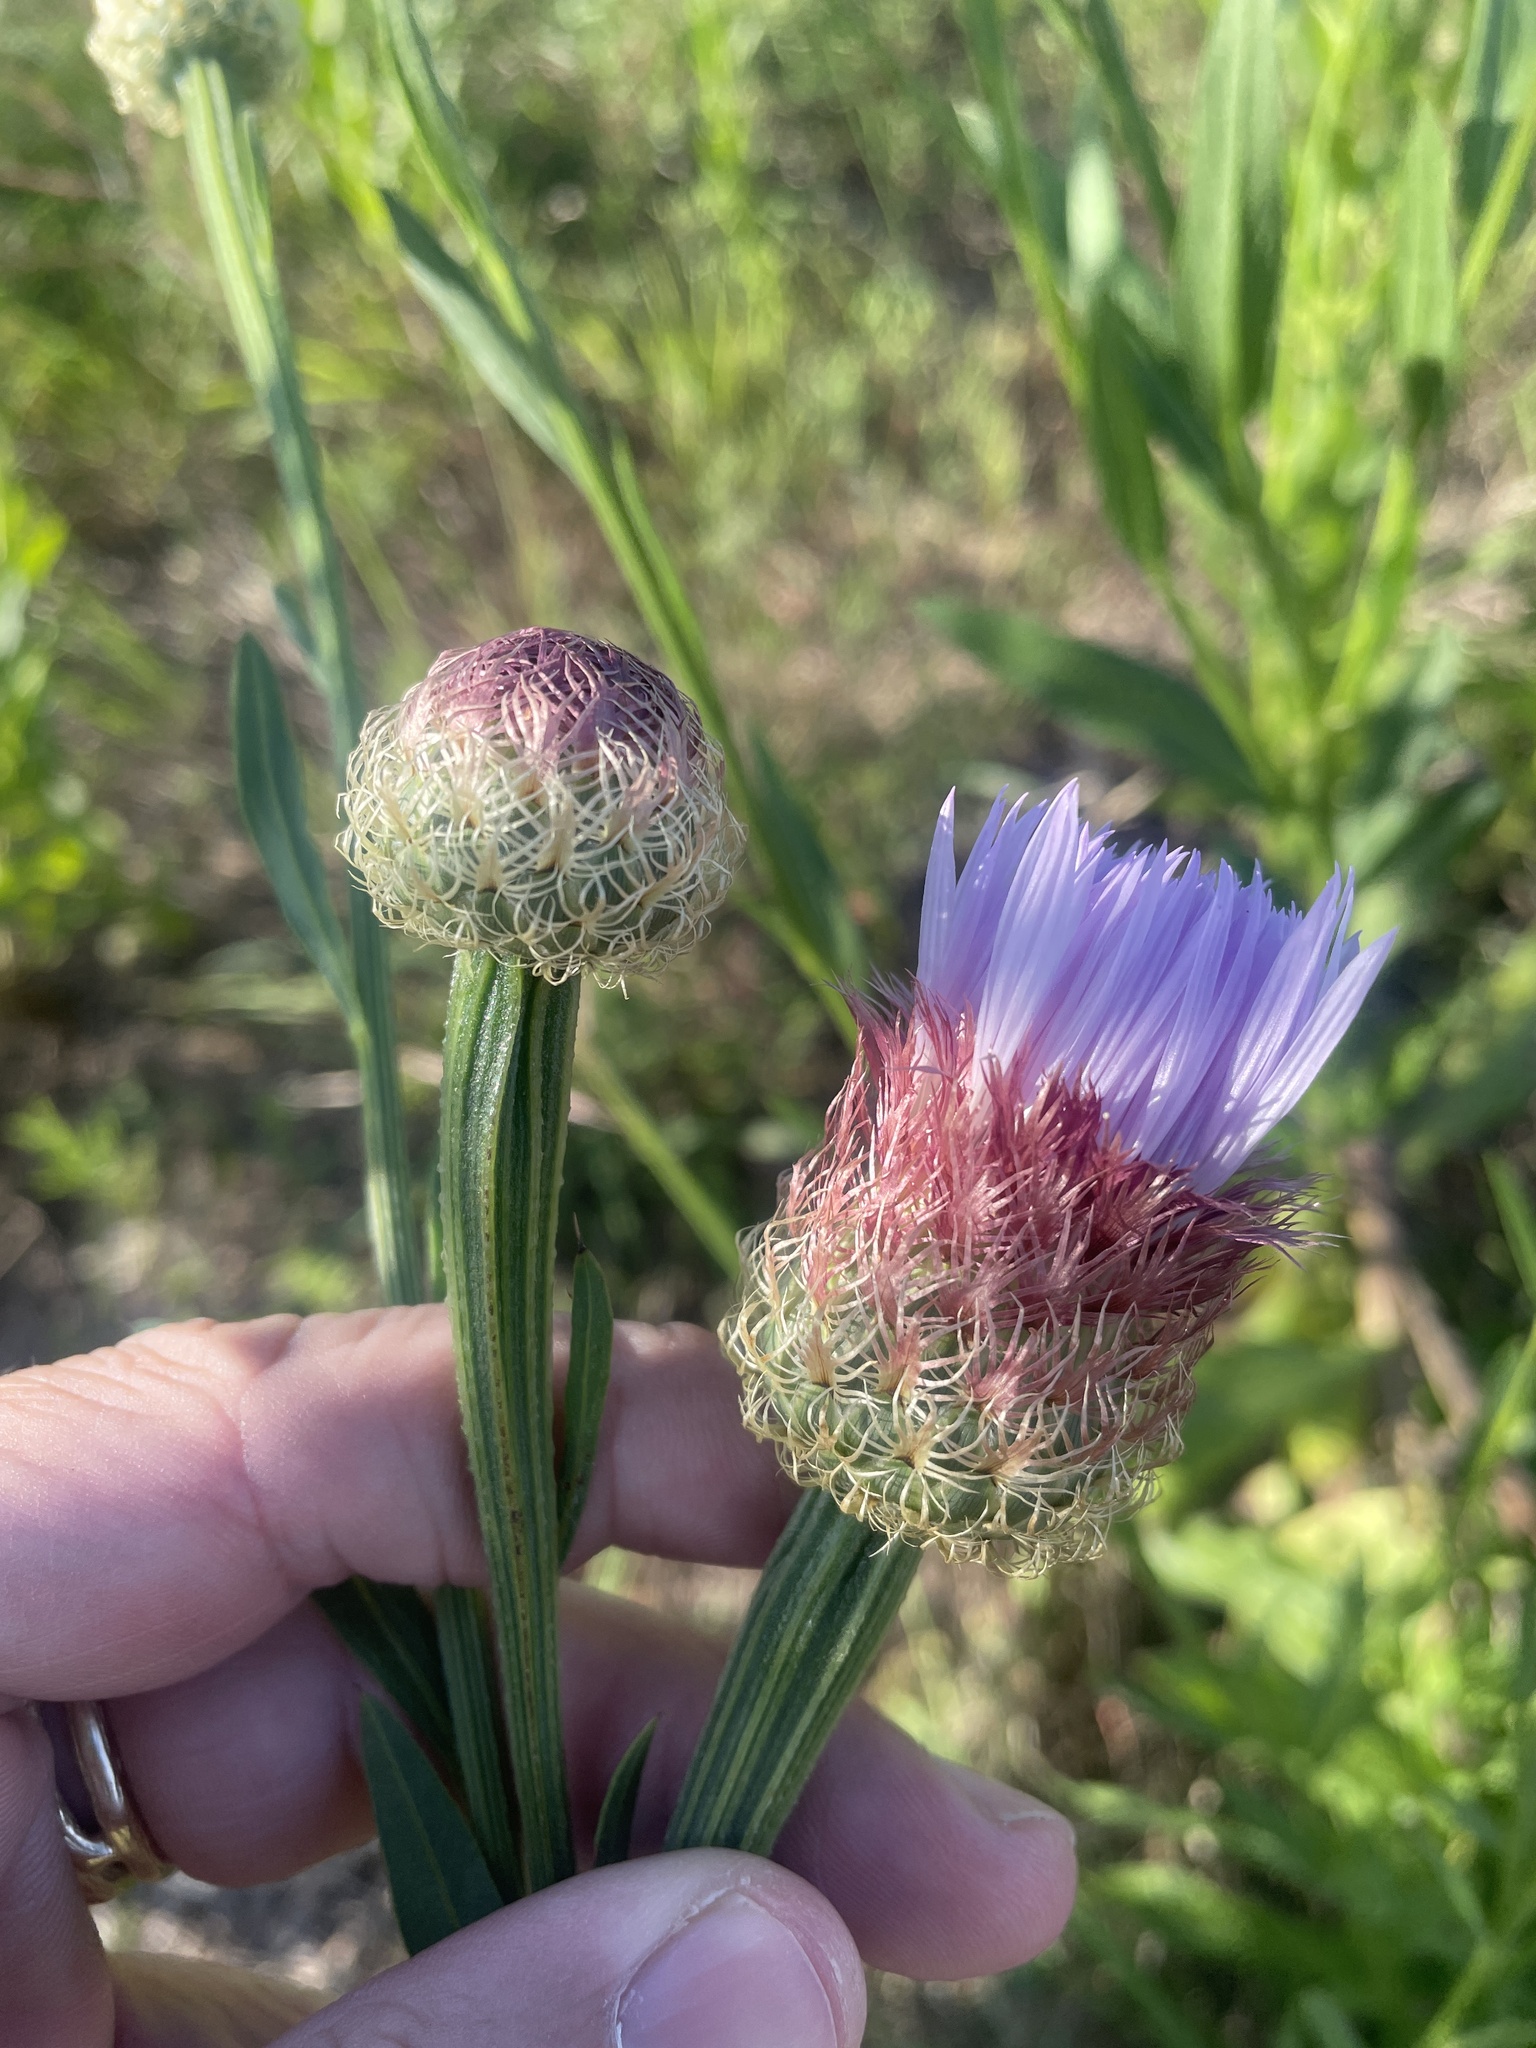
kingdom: Plantae
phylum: Tracheophyta
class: Magnoliopsida
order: Asterales
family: Asteraceae
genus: Plectocephalus
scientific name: Plectocephalus americanus
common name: American basket-flower
